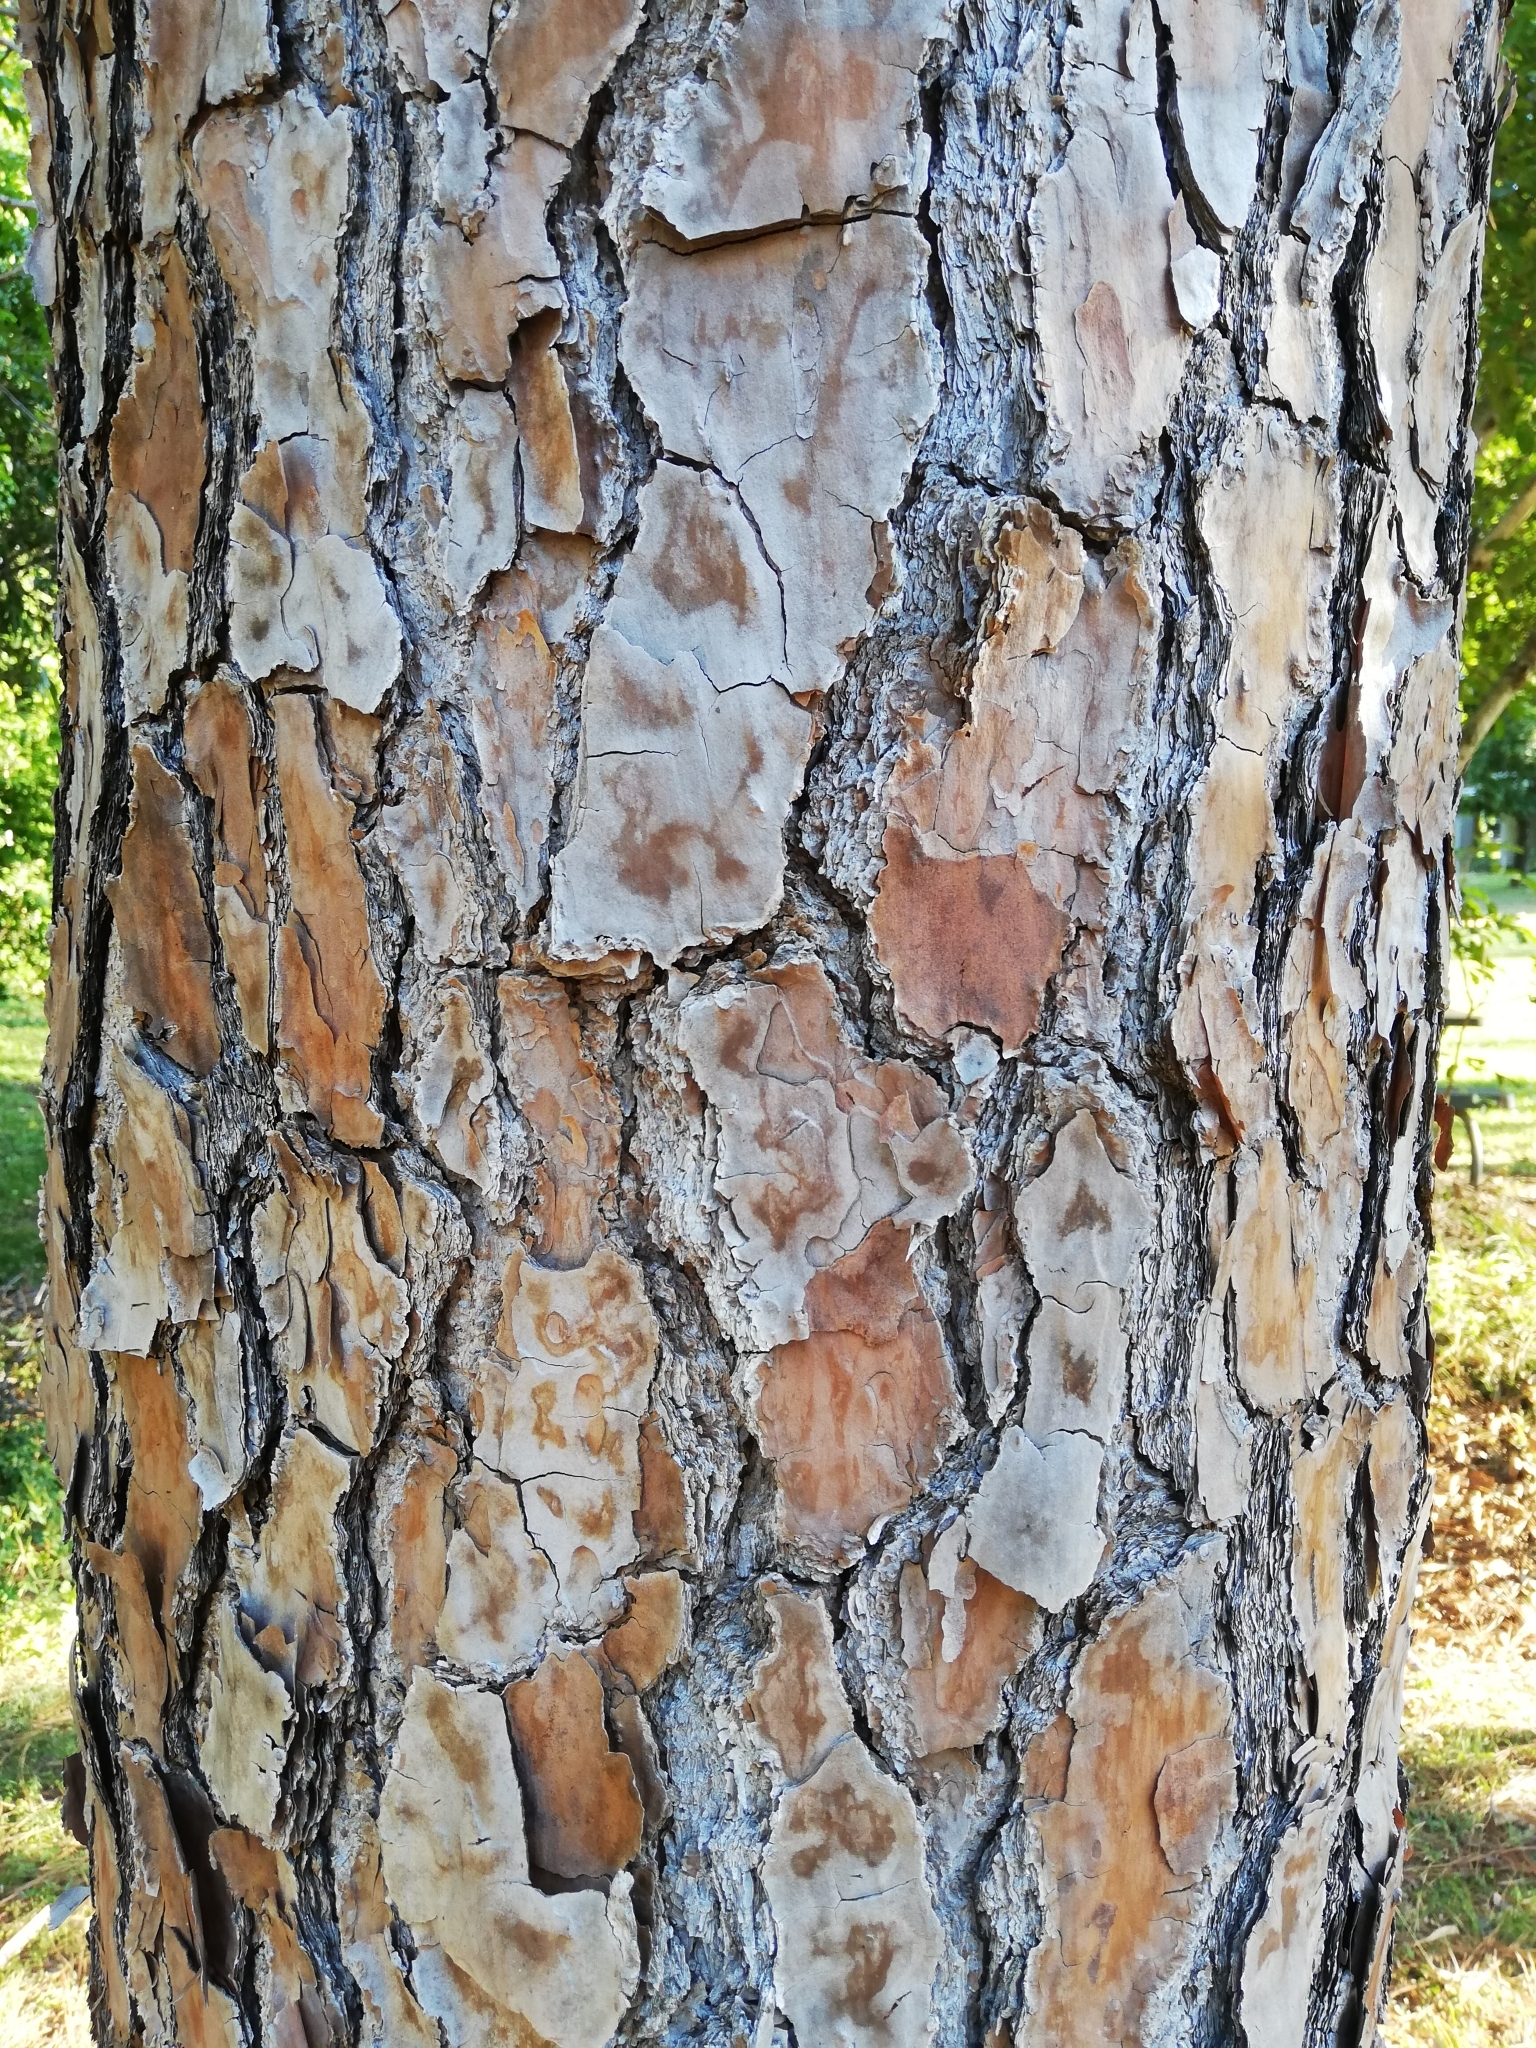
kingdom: Plantae
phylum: Tracheophyta
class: Pinopsida
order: Pinales
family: Pinaceae
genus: Pinus
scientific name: Pinus elliottii
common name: Slash pine
